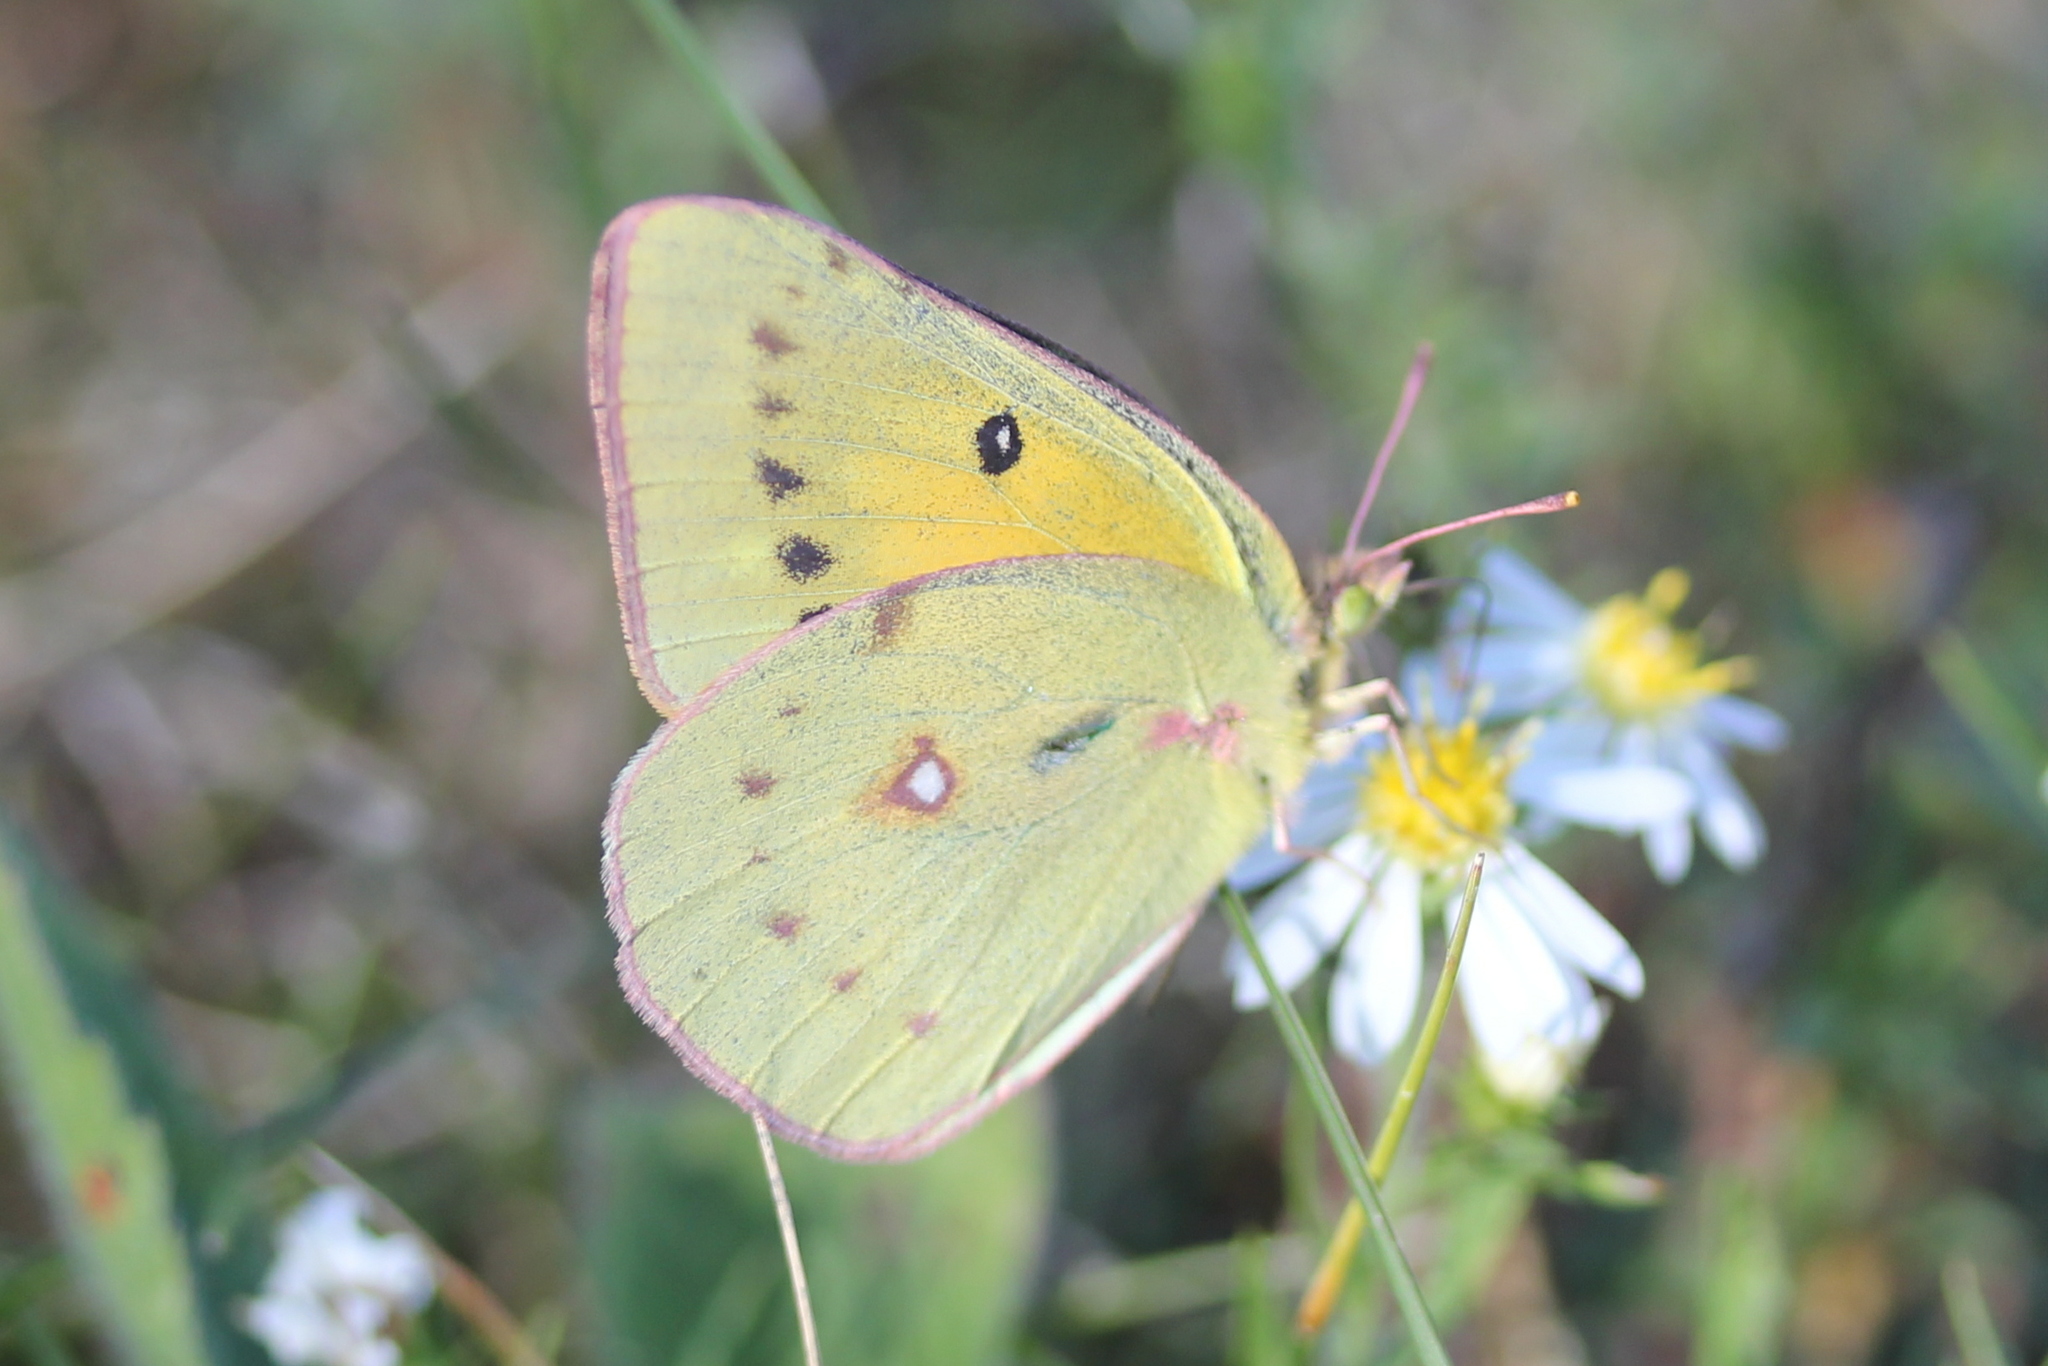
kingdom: Animalia
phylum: Arthropoda
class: Insecta
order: Lepidoptera
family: Pieridae
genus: Colias
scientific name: Colias eurytheme
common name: Alfalfa butterfly
